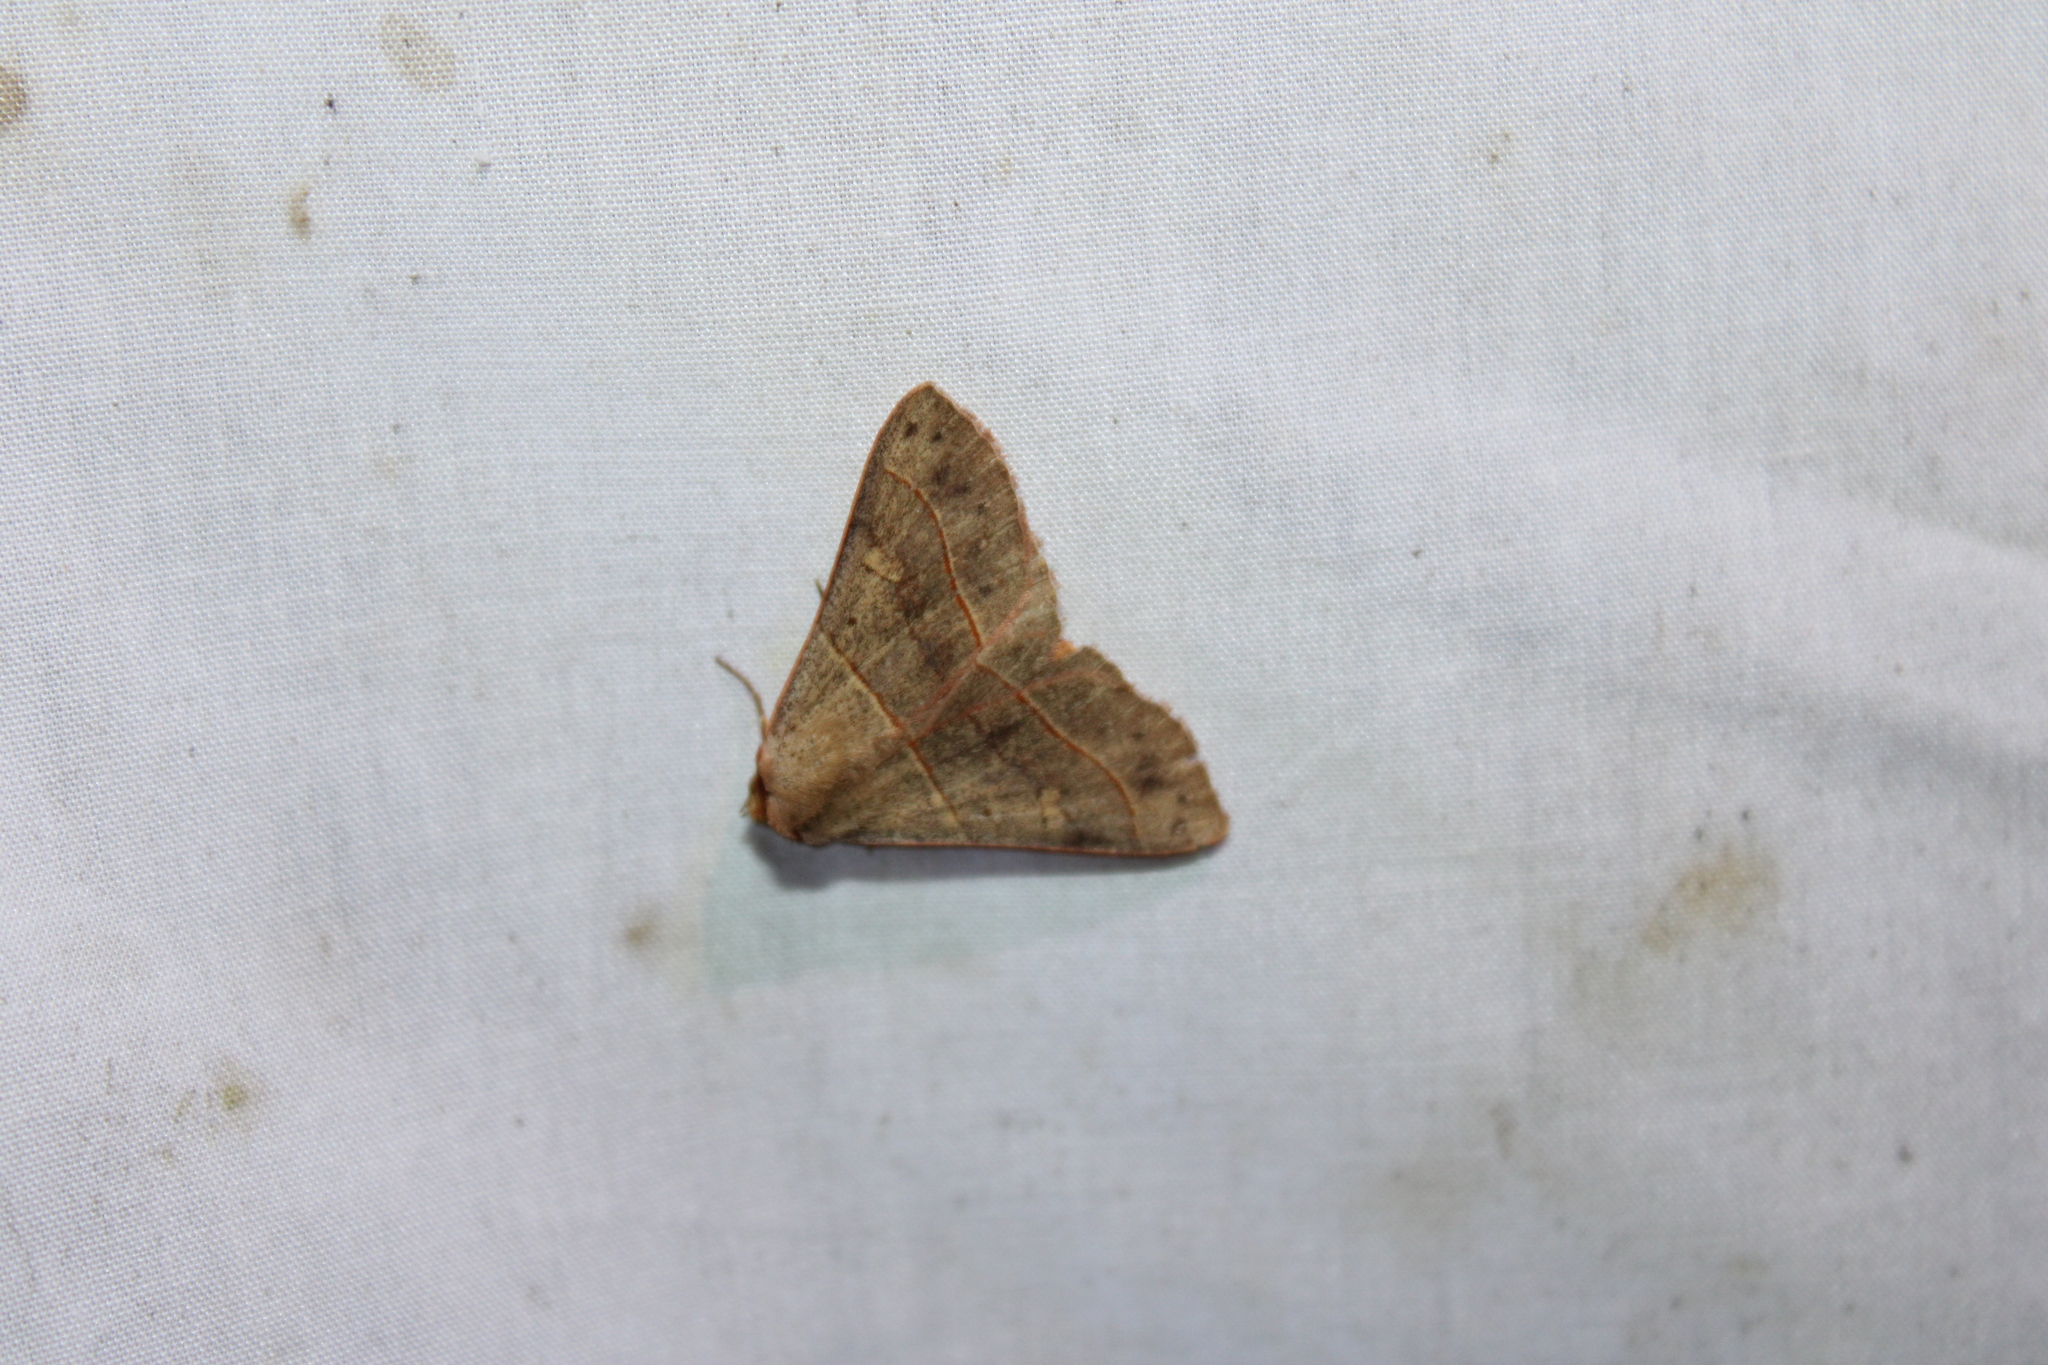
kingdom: Animalia
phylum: Arthropoda
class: Insecta
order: Lepidoptera
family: Erebidae
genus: Panopoda
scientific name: Panopoda rufimargo
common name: Red-lined panopoda moth
